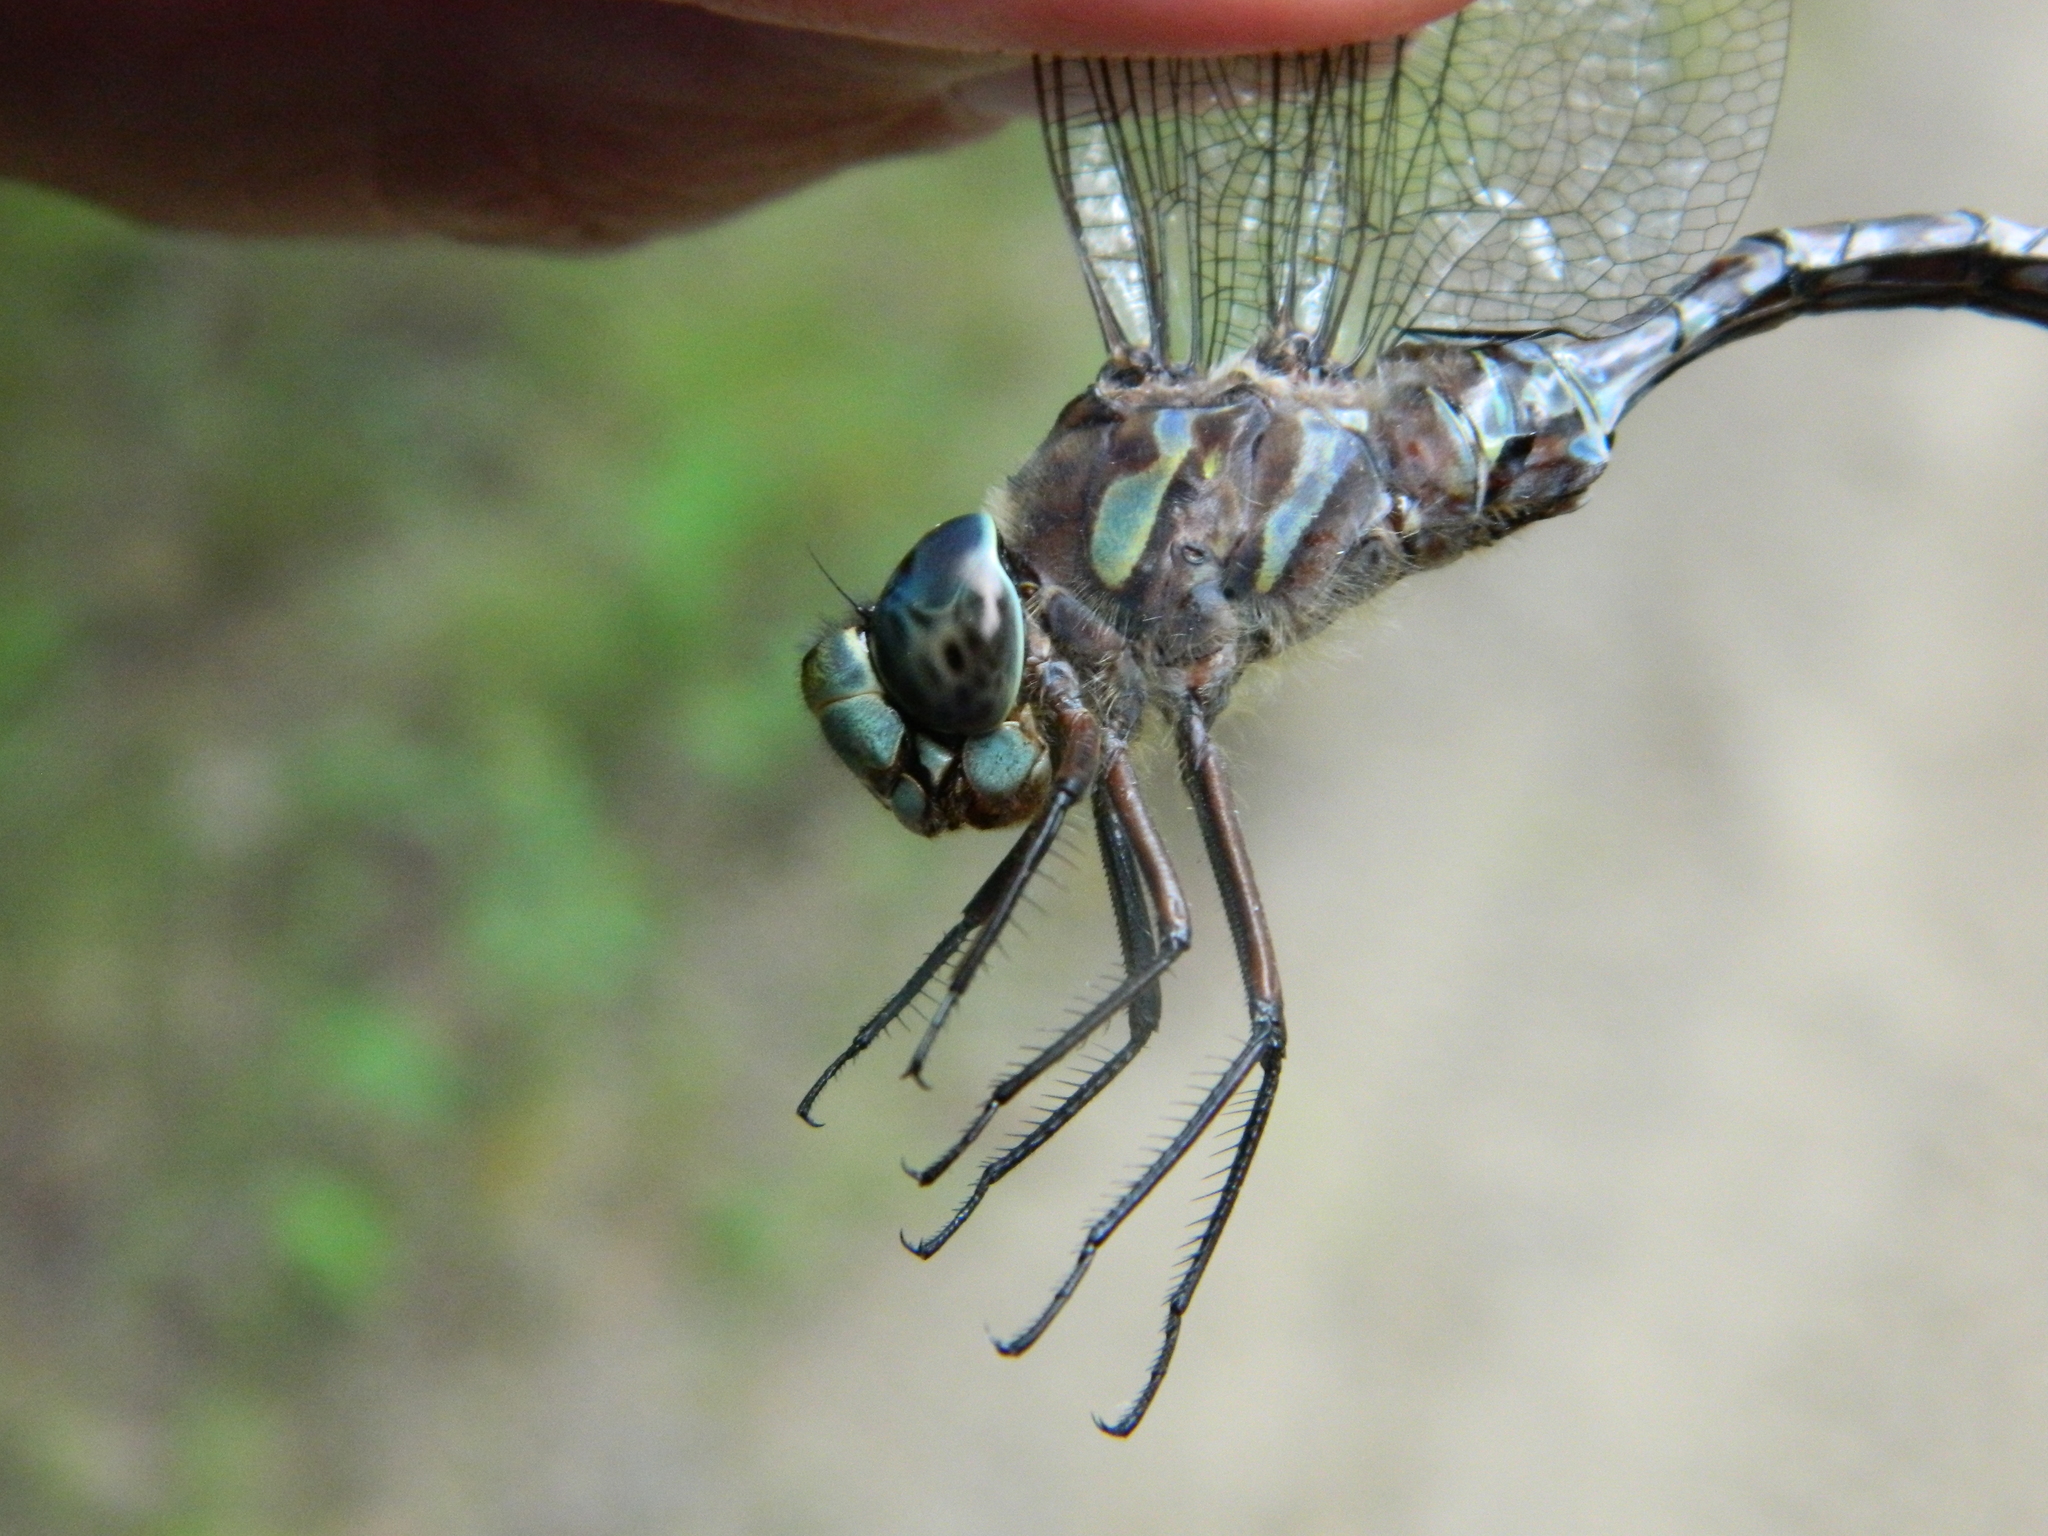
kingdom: Animalia
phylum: Arthropoda
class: Insecta
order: Odonata
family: Aeshnidae
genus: Aeshna
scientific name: Aeshna canadensis
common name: Canada darner
